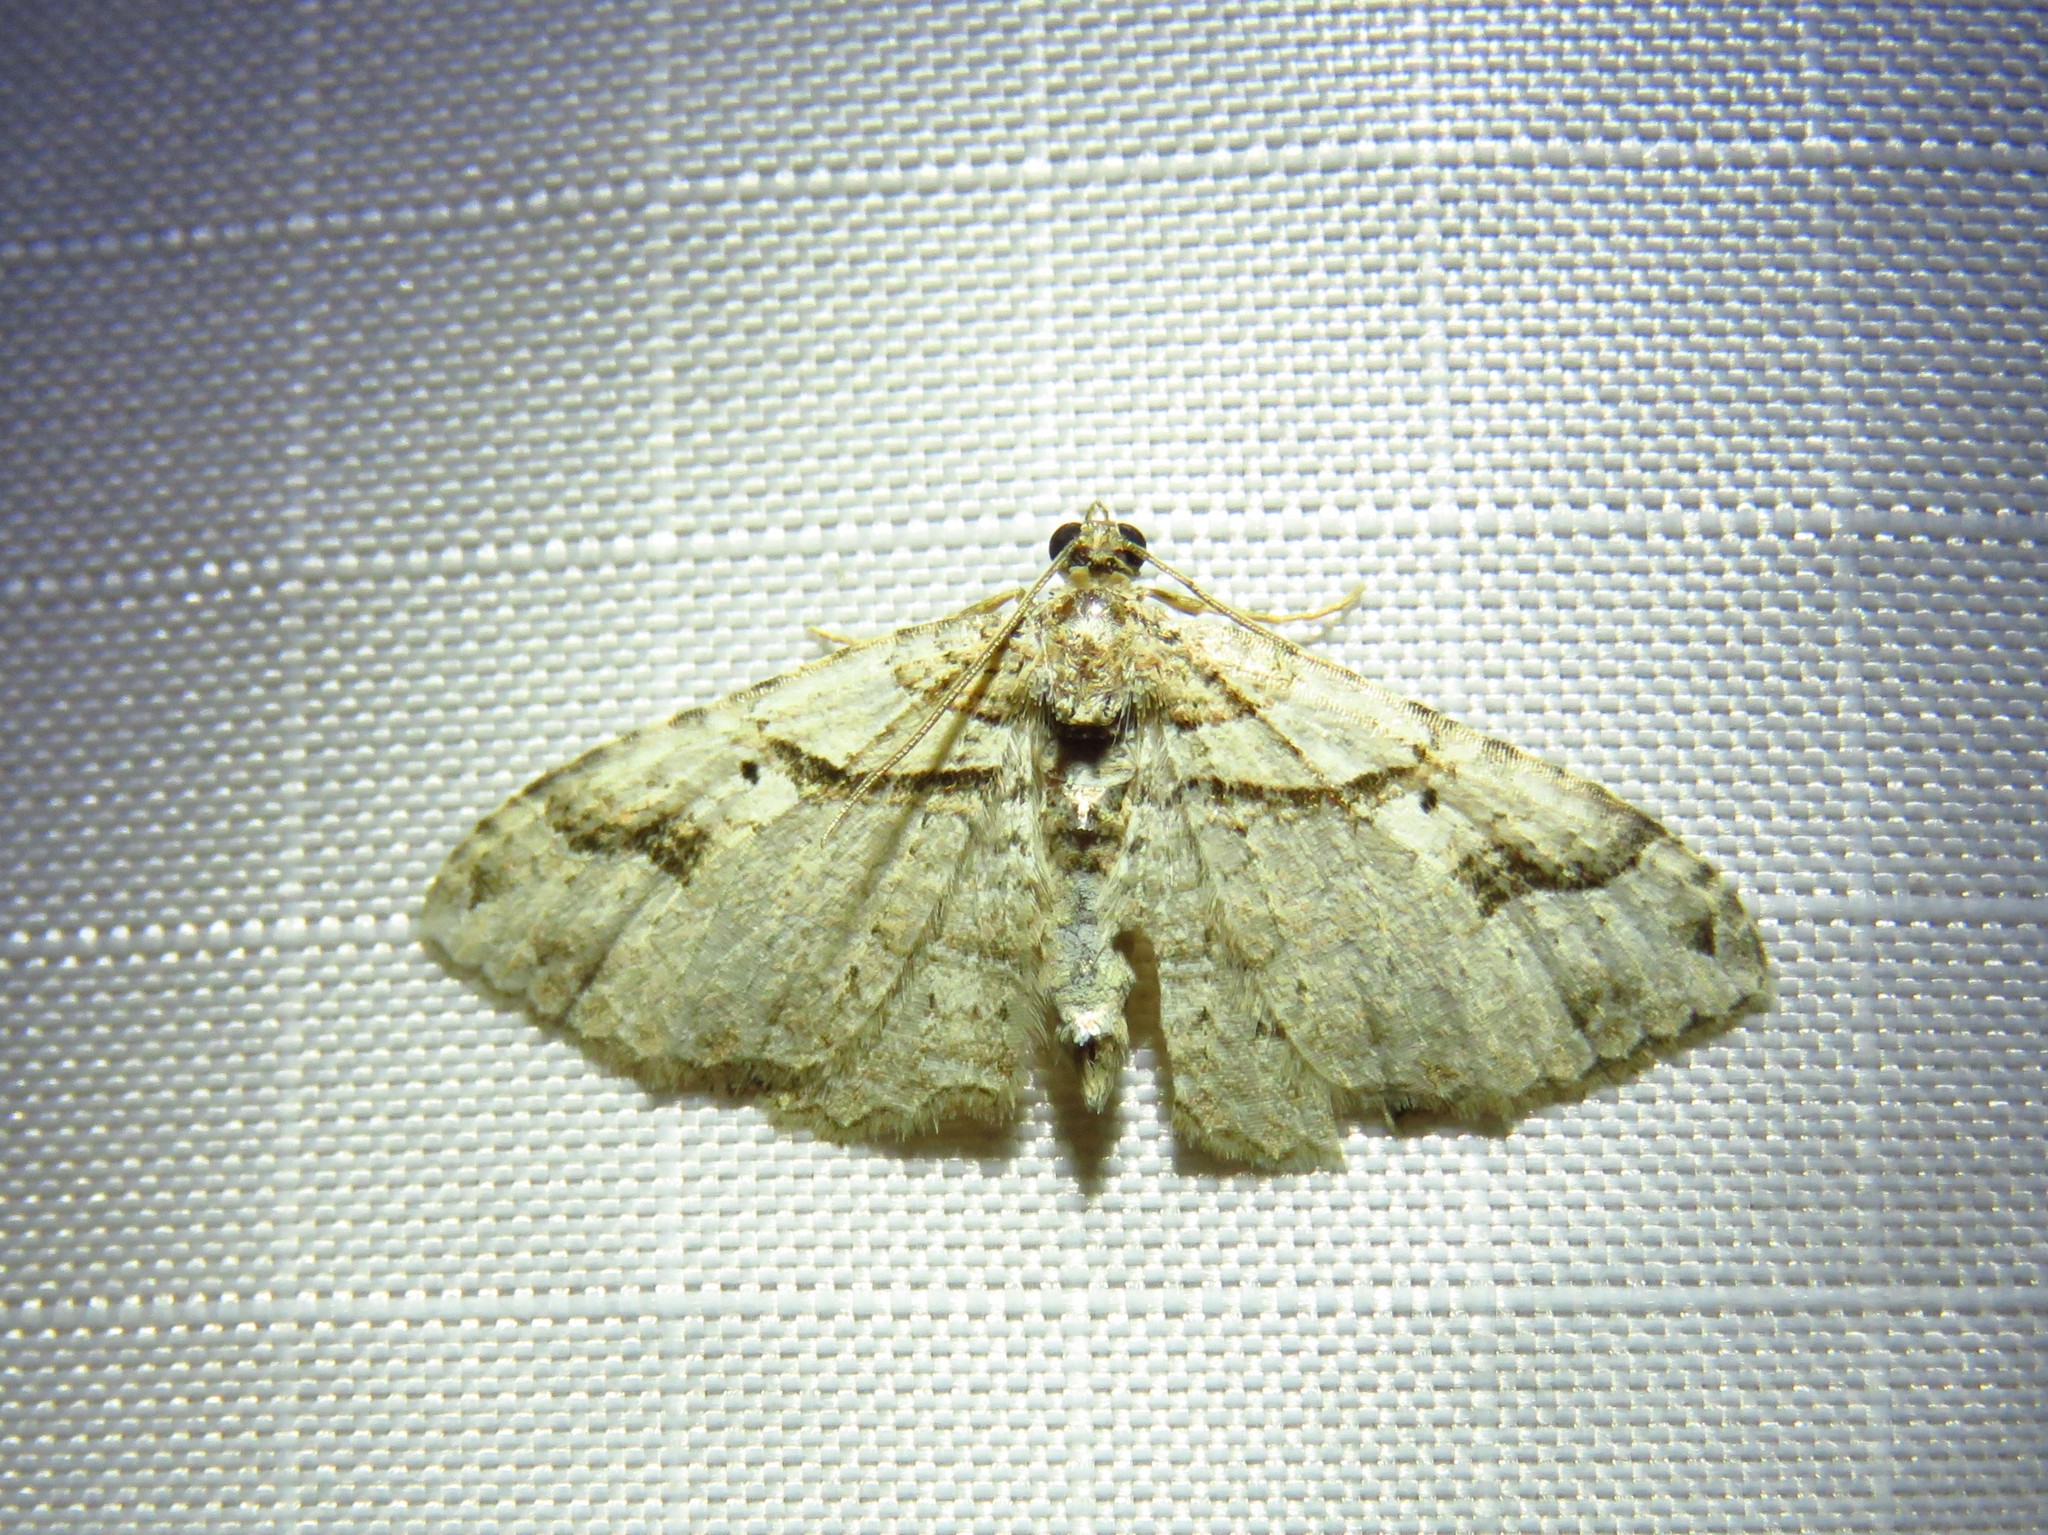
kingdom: Animalia
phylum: Arthropoda
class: Insecta
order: Lepidoptera
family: Geometridae
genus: Costaconvexa
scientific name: Costaconvexa centrostrigaria
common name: Bent-line carpet
